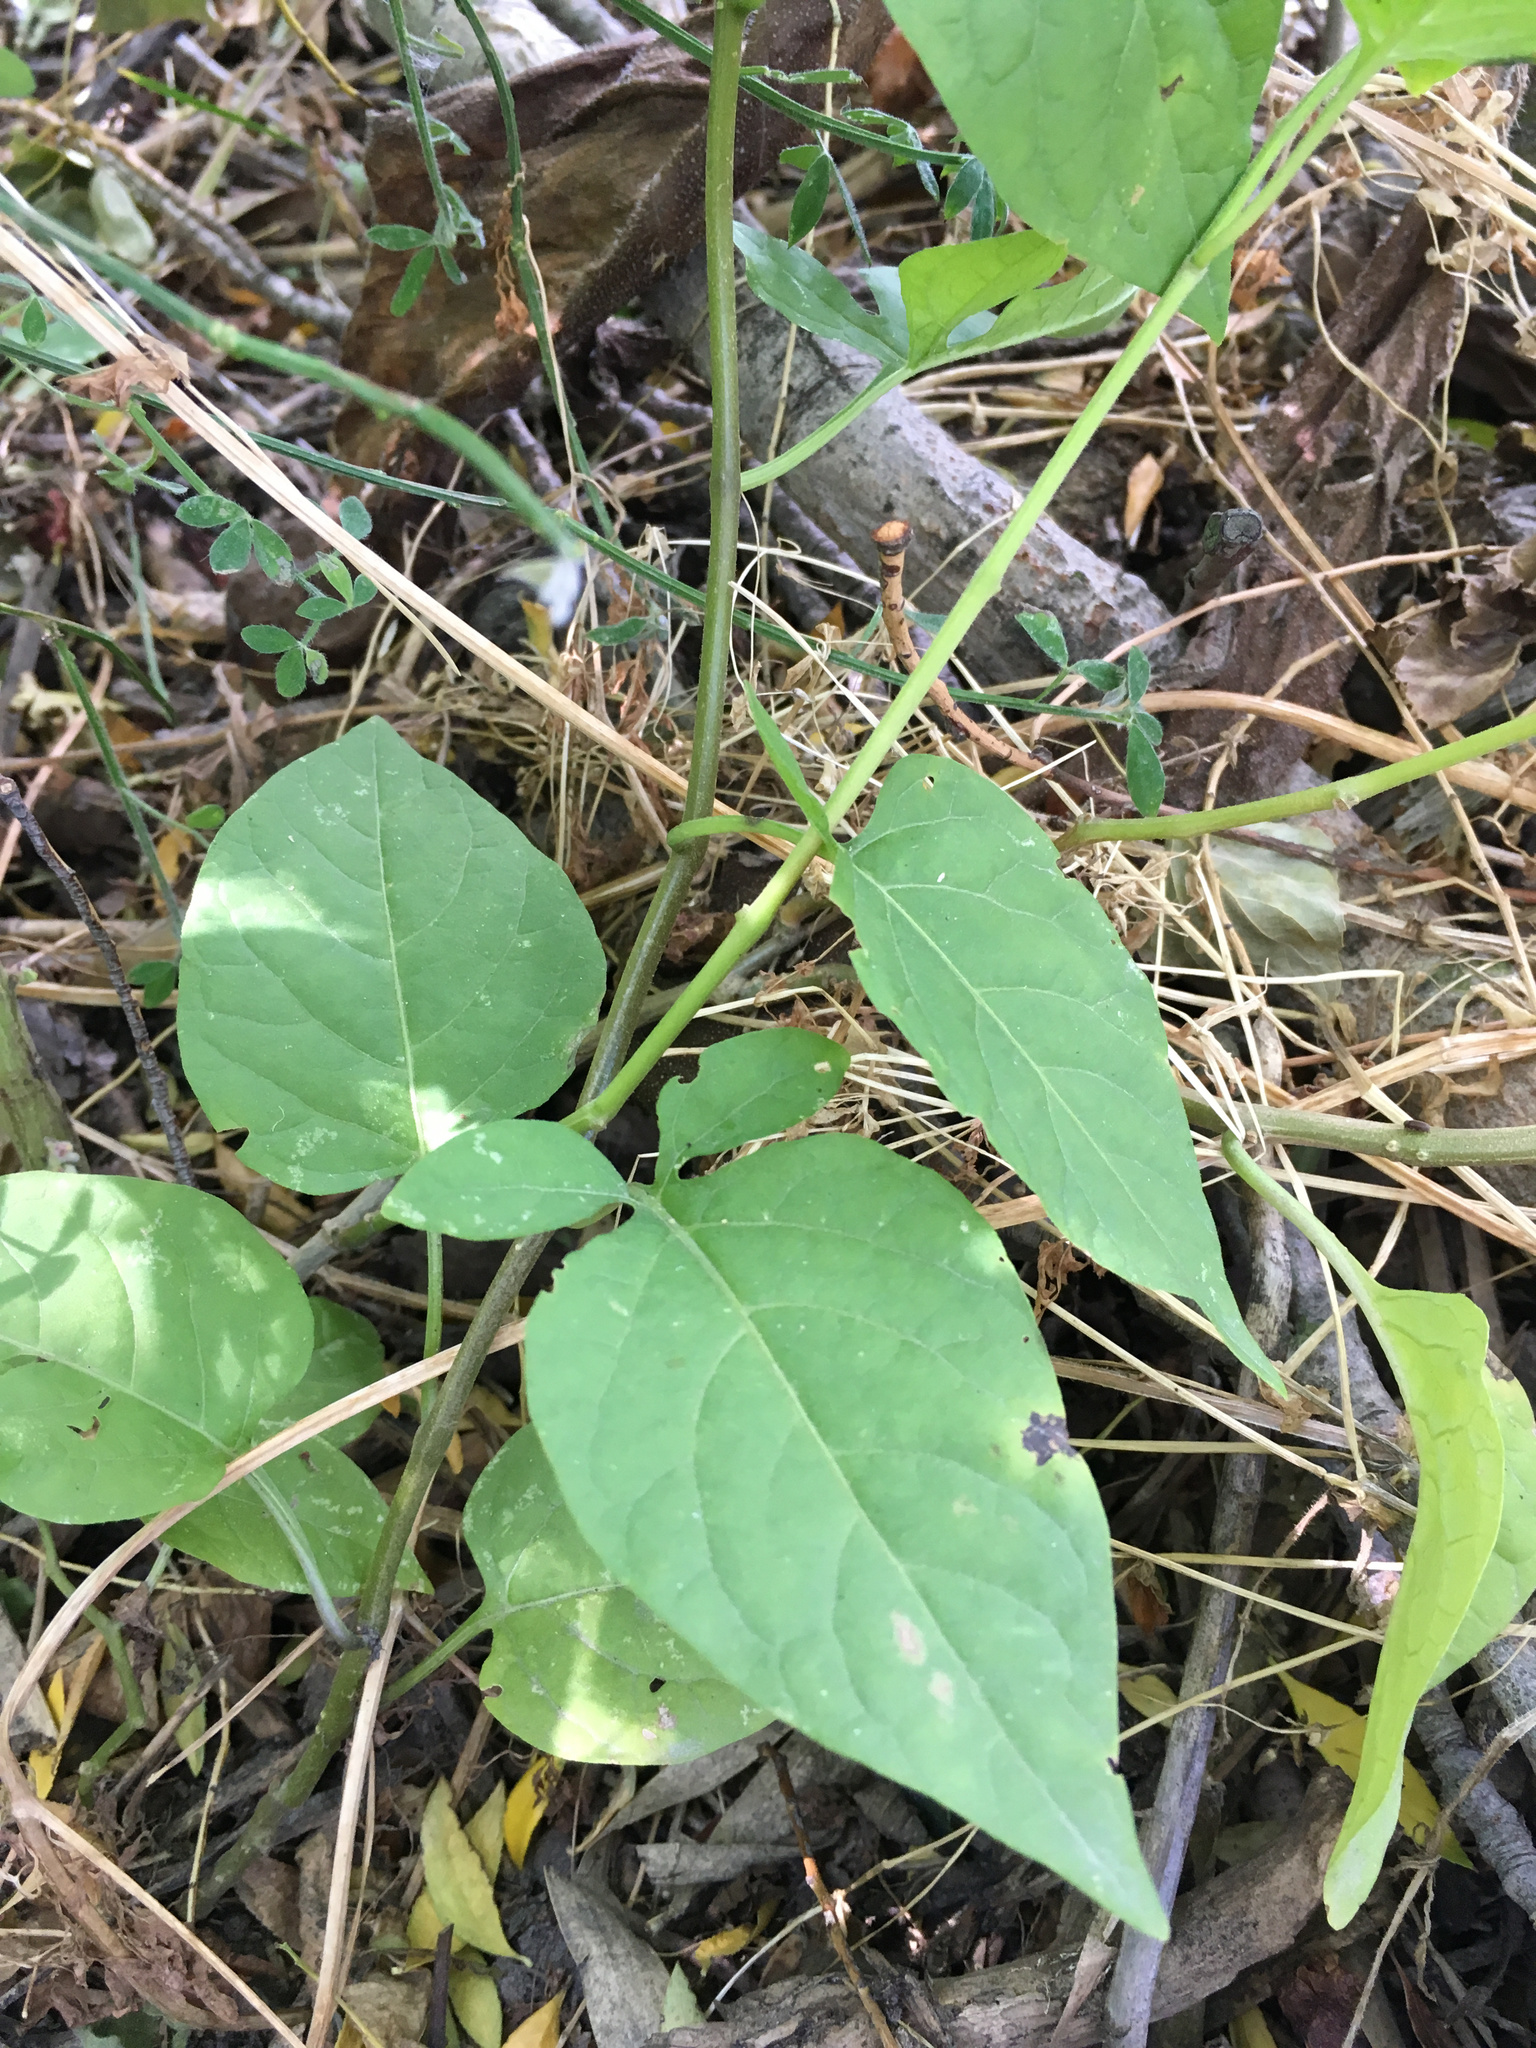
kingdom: Plantae
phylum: Tracheophyta
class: Magnoliopsida
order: Solanales
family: Solanaceae
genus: Solanum
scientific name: Solanum dulcamara
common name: Climbing nightshade
